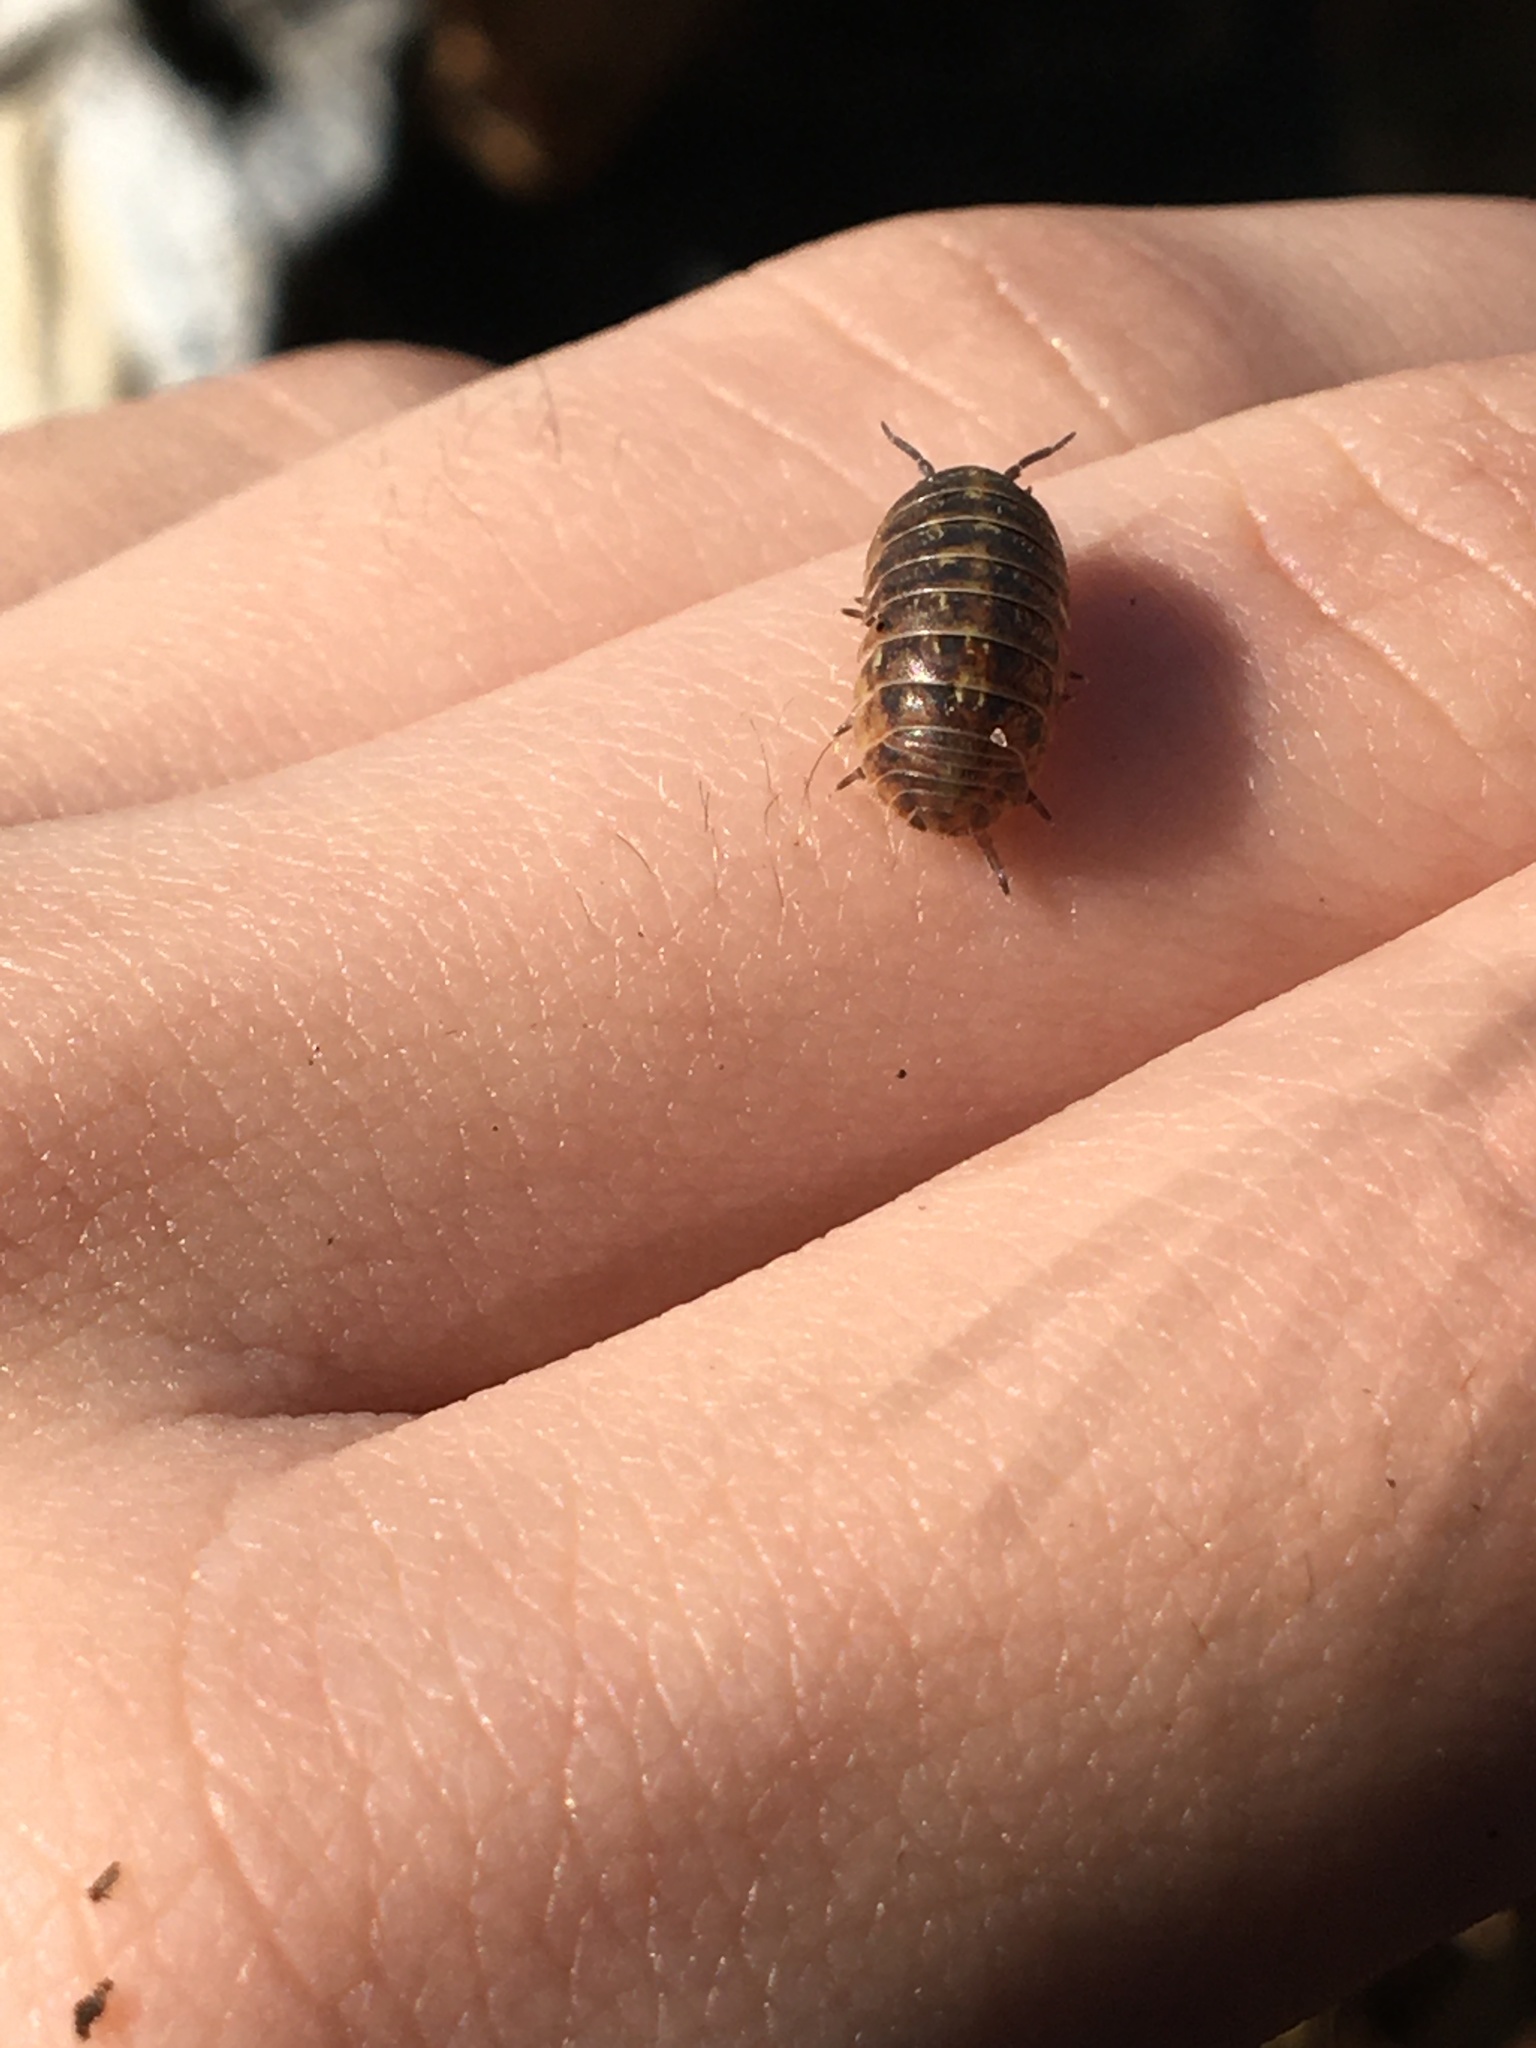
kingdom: Animalia
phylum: Arthropoda
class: Malacostraca
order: Isopoda
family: Armadillidiidae
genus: Armadillidium
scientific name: Armadillidium vulgare
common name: Common pill woodlouse
